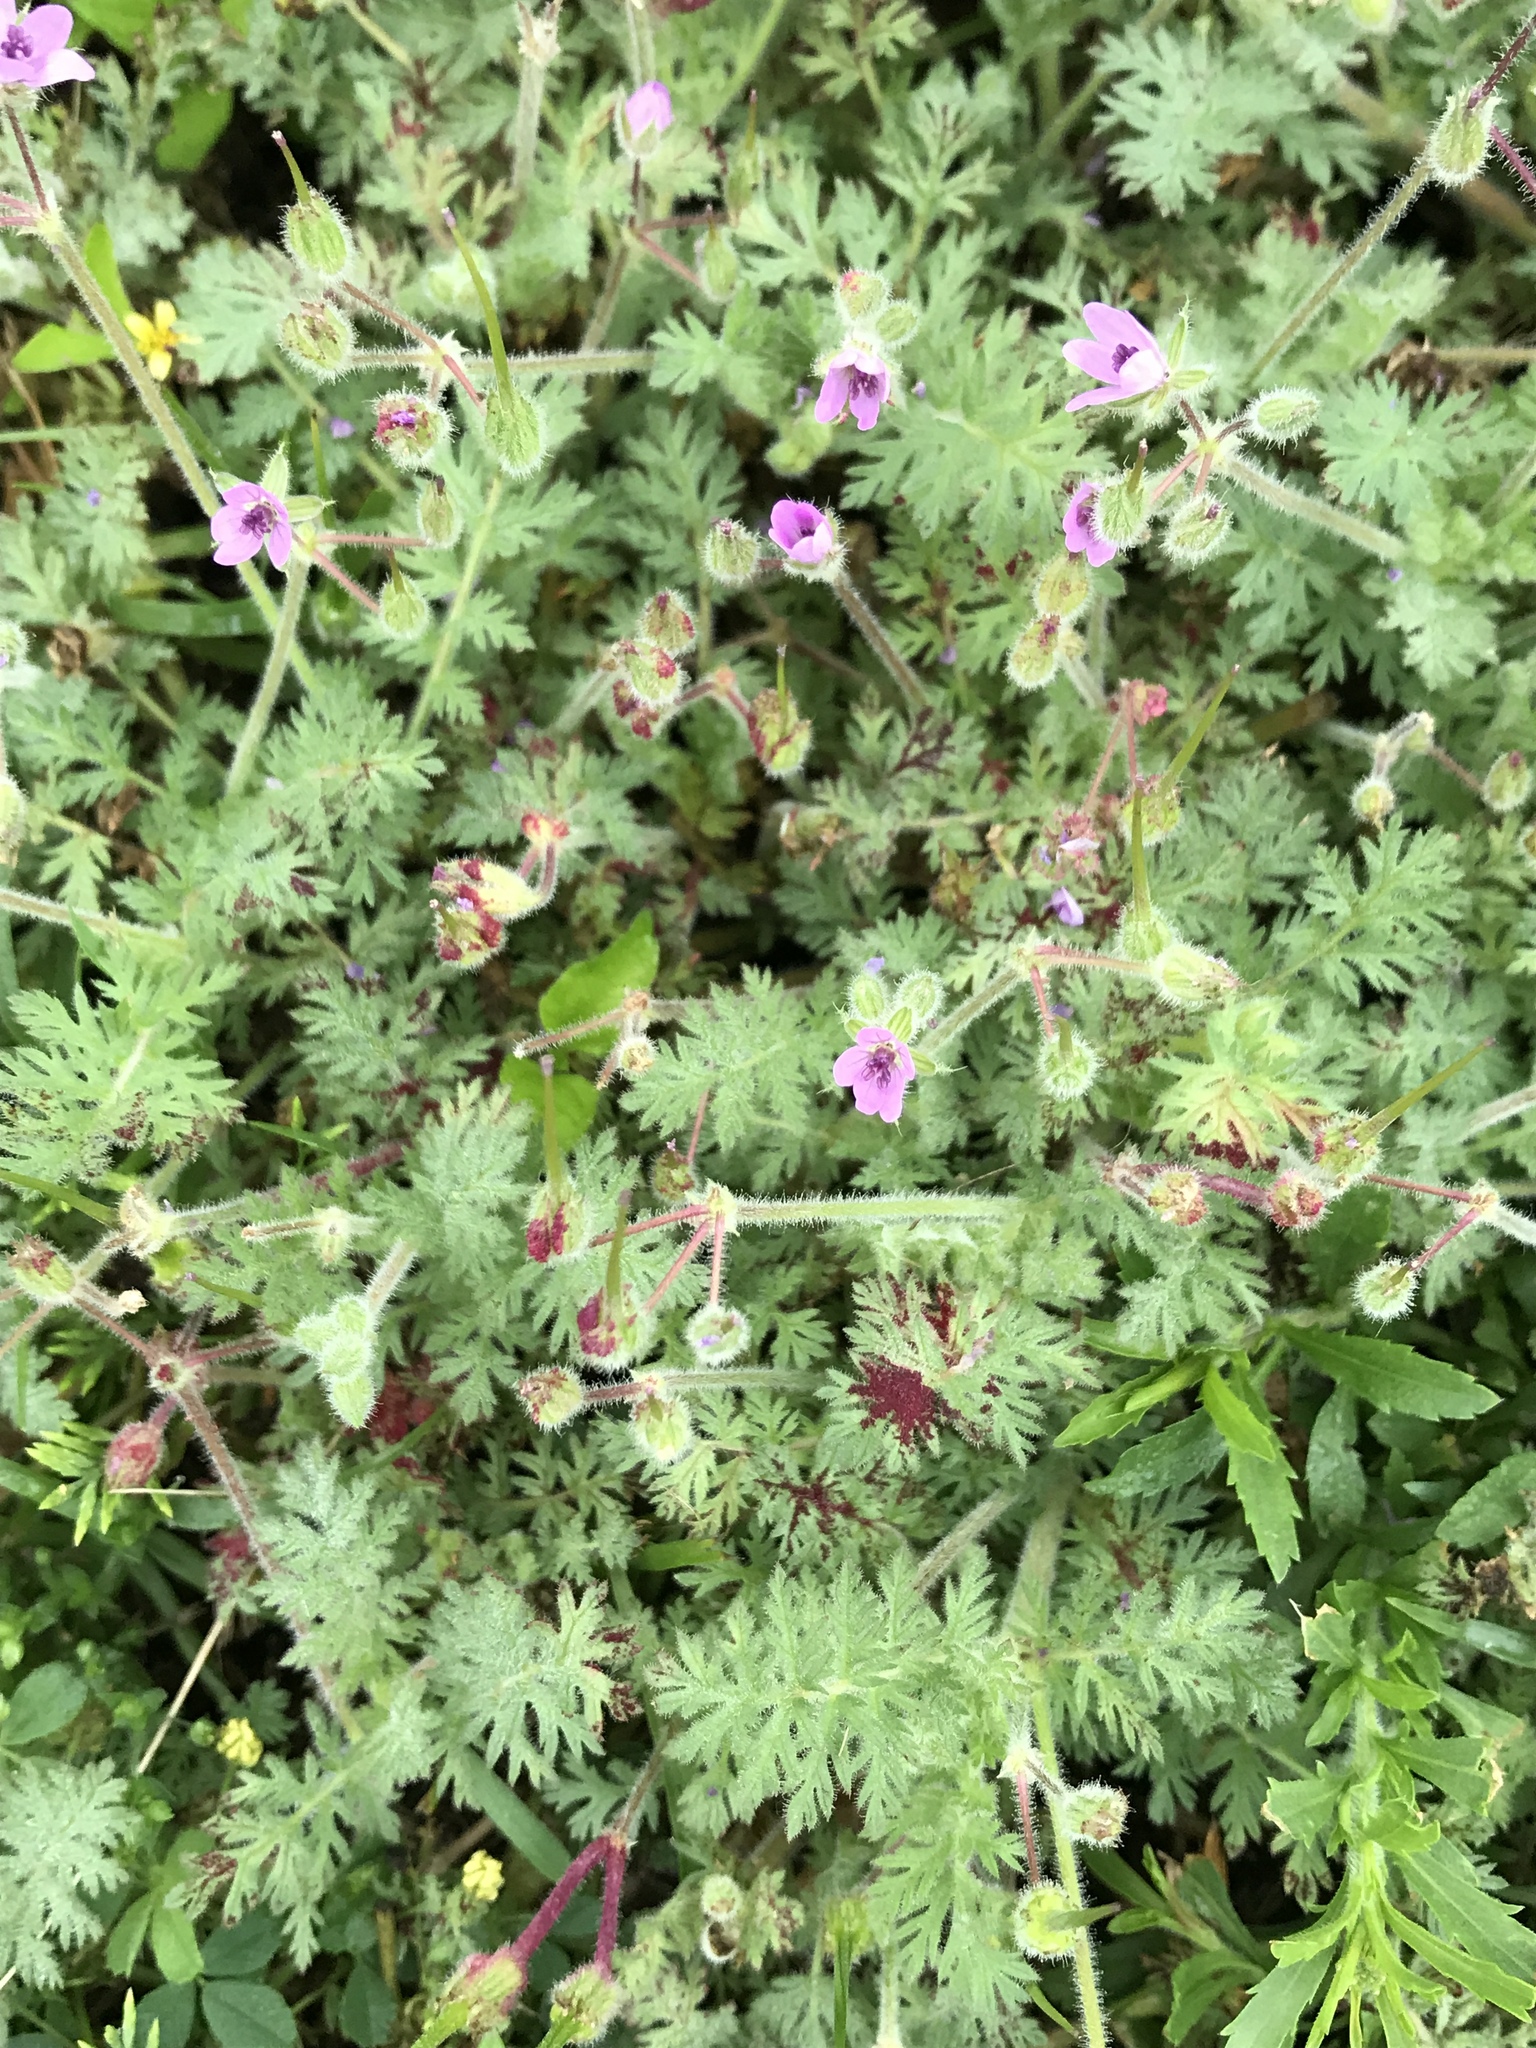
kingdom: Plantae
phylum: Tracheophyta
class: Magnoliopsida
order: Geraniales
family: Geraniaceae
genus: Erodium
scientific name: Erodium cicutarium
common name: Common stork's-bill
